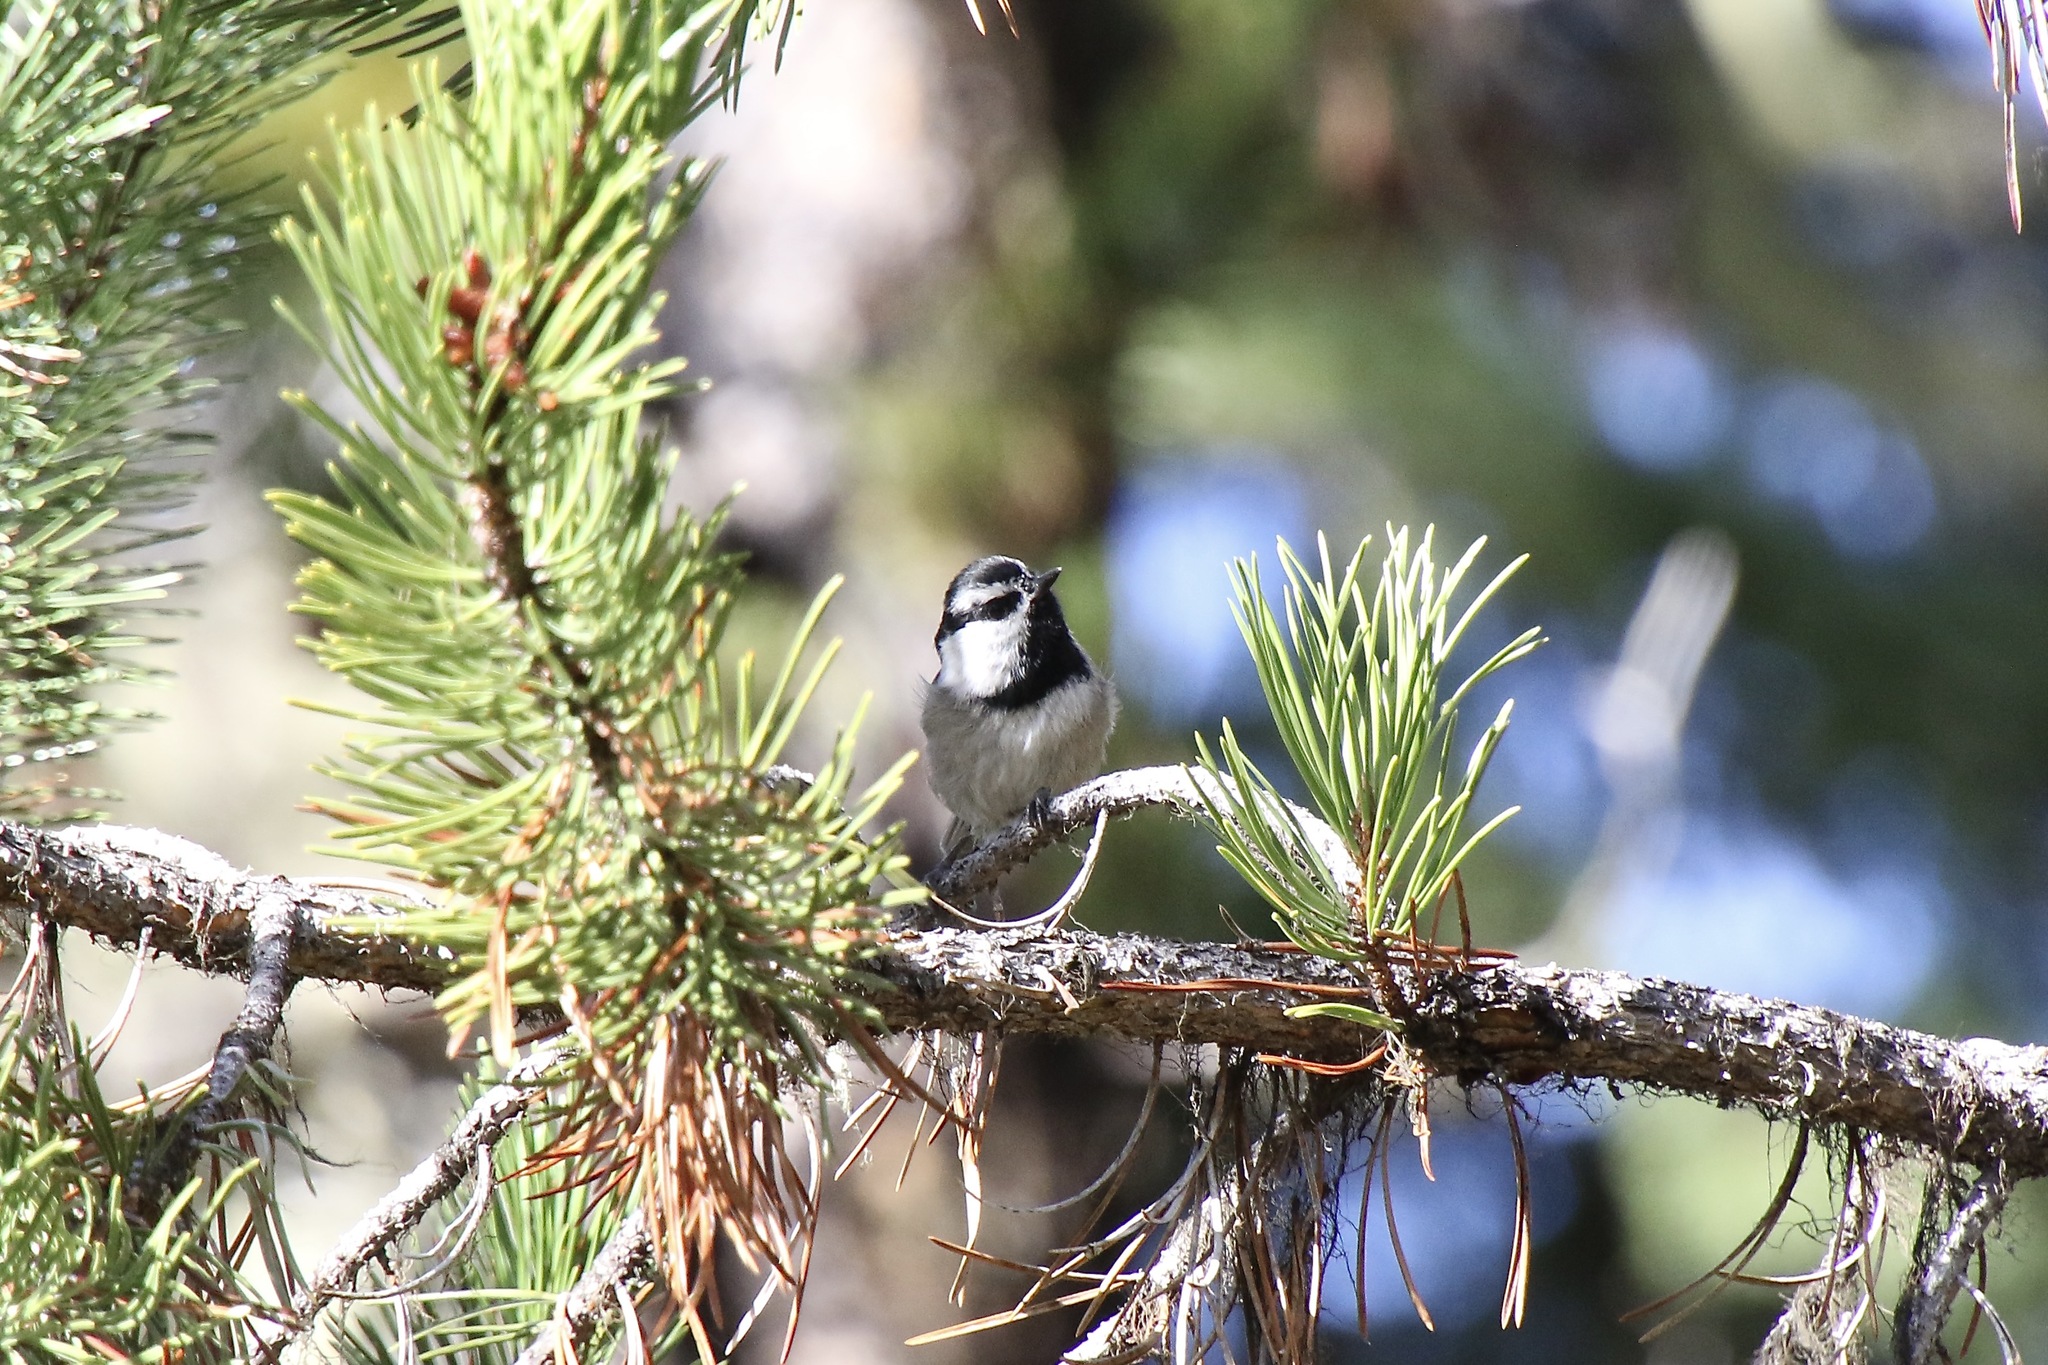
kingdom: Animalia
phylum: Chordata
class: Aves
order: Passeriformes
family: Paridae
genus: Poecile
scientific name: Poecile gambeli
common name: Mountain chickadee
